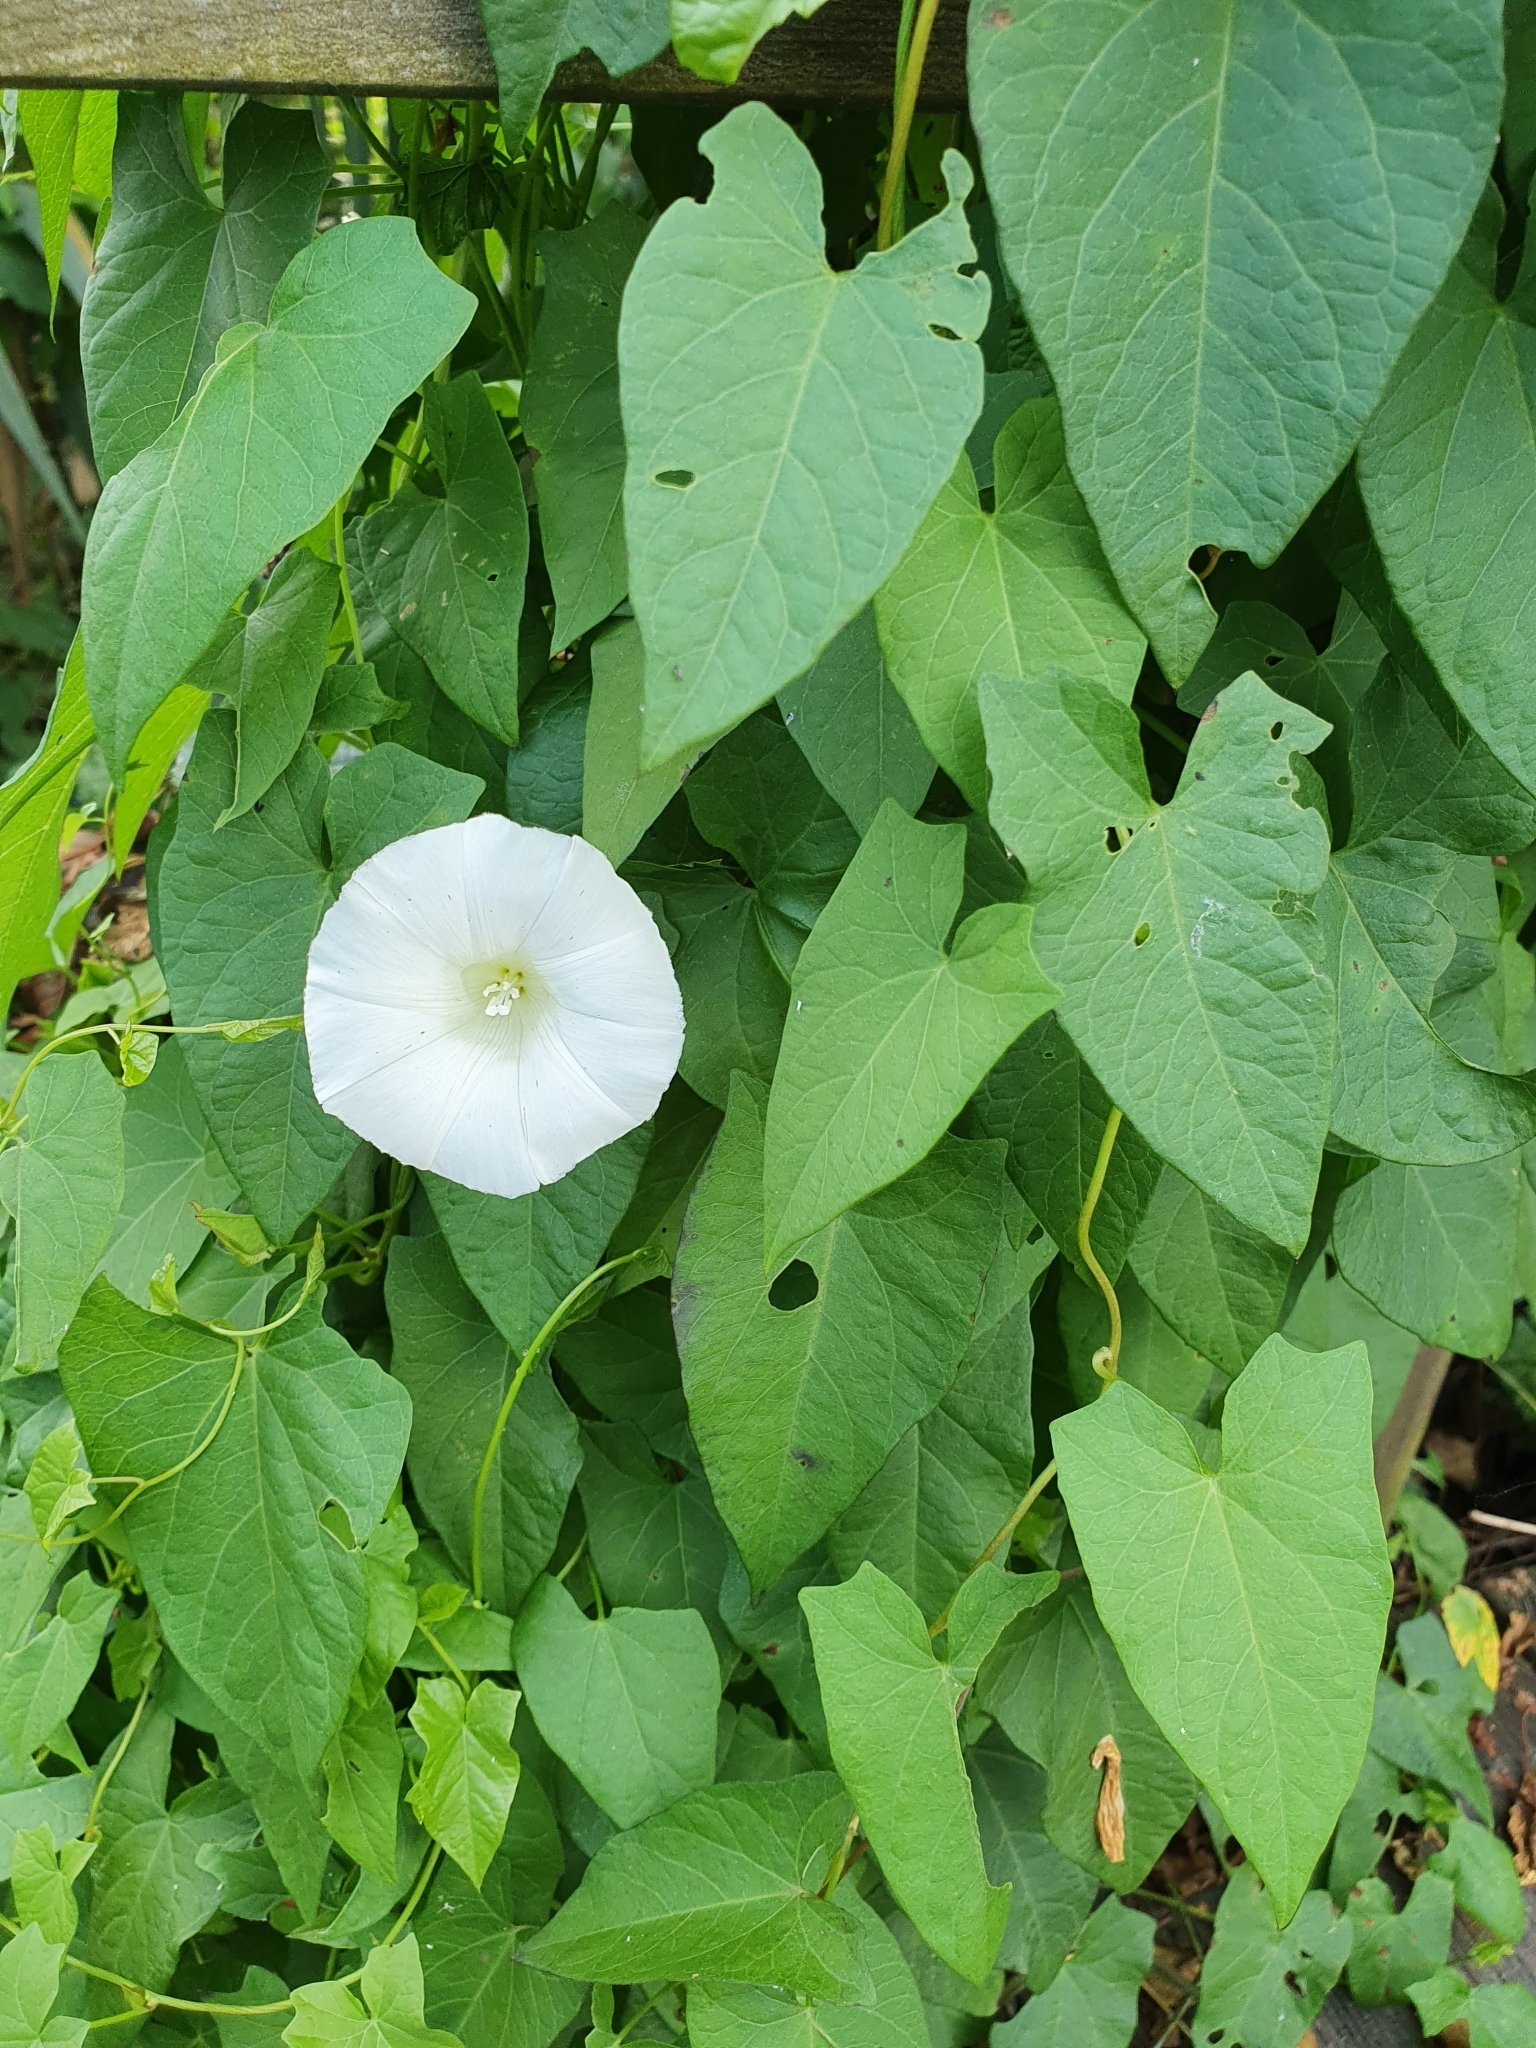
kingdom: Plantae
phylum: Tracheophyta
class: Magnoliopsida
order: Solanales
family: Convolvulaceae
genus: Calystegia
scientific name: Calystegia sepium
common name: Hedge bindweed
